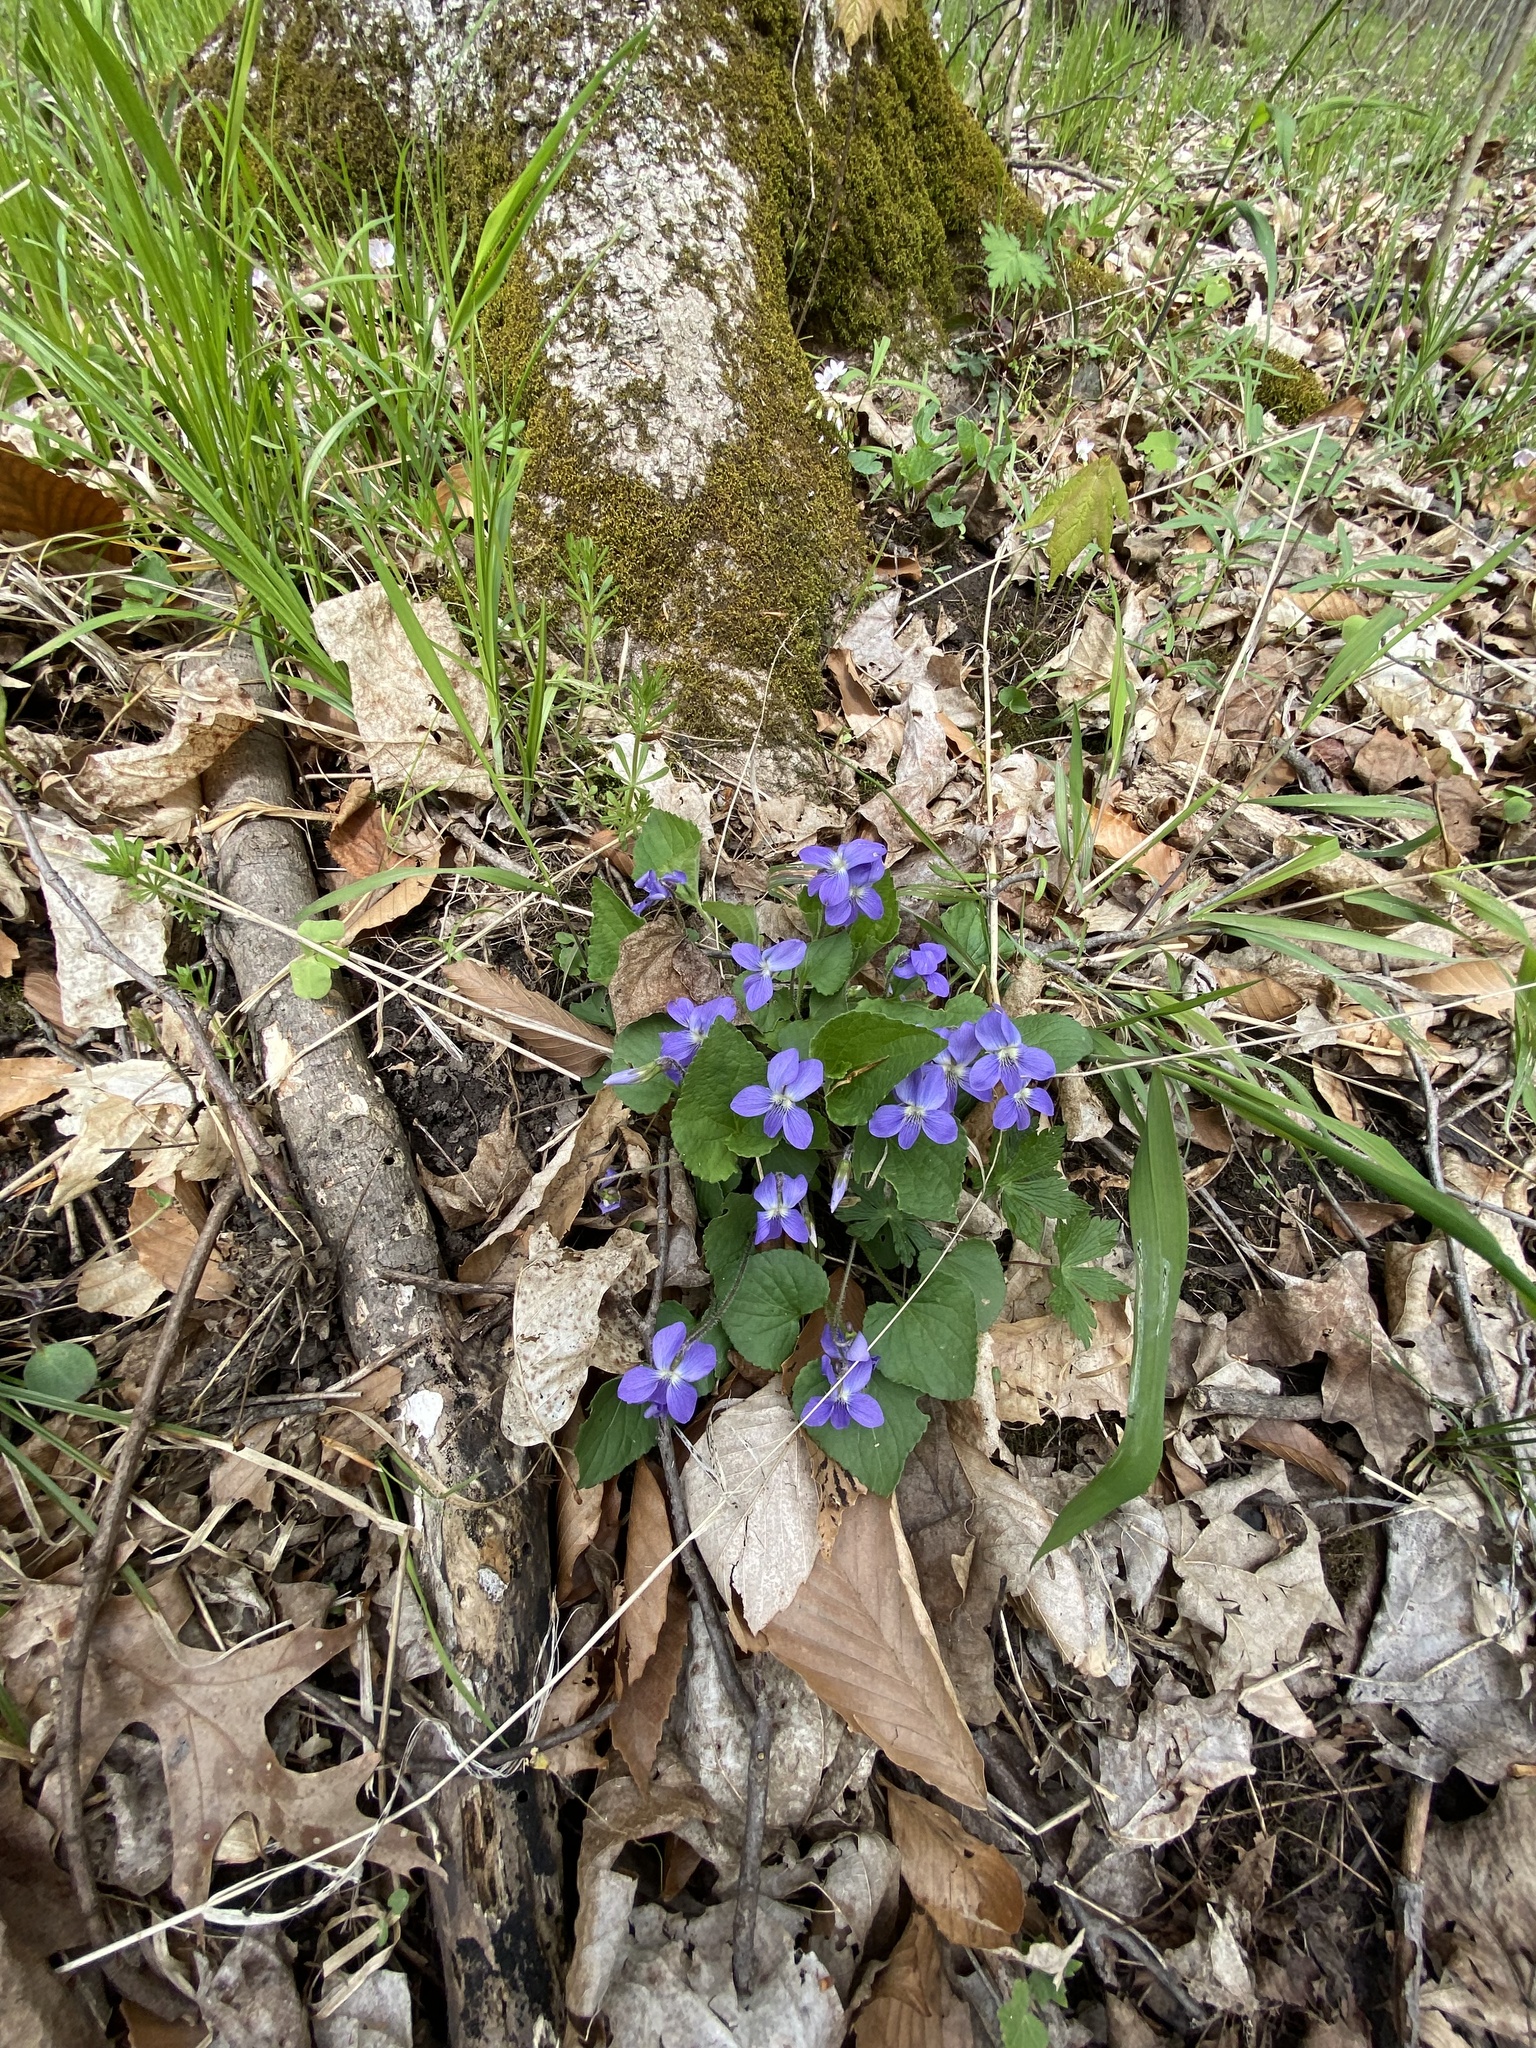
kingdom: Plantae
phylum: Tracheophyta
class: Magnoliopsida
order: Malpighiales
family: Violaceae
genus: Viola
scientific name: Viola sororia
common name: Dooryard violet
